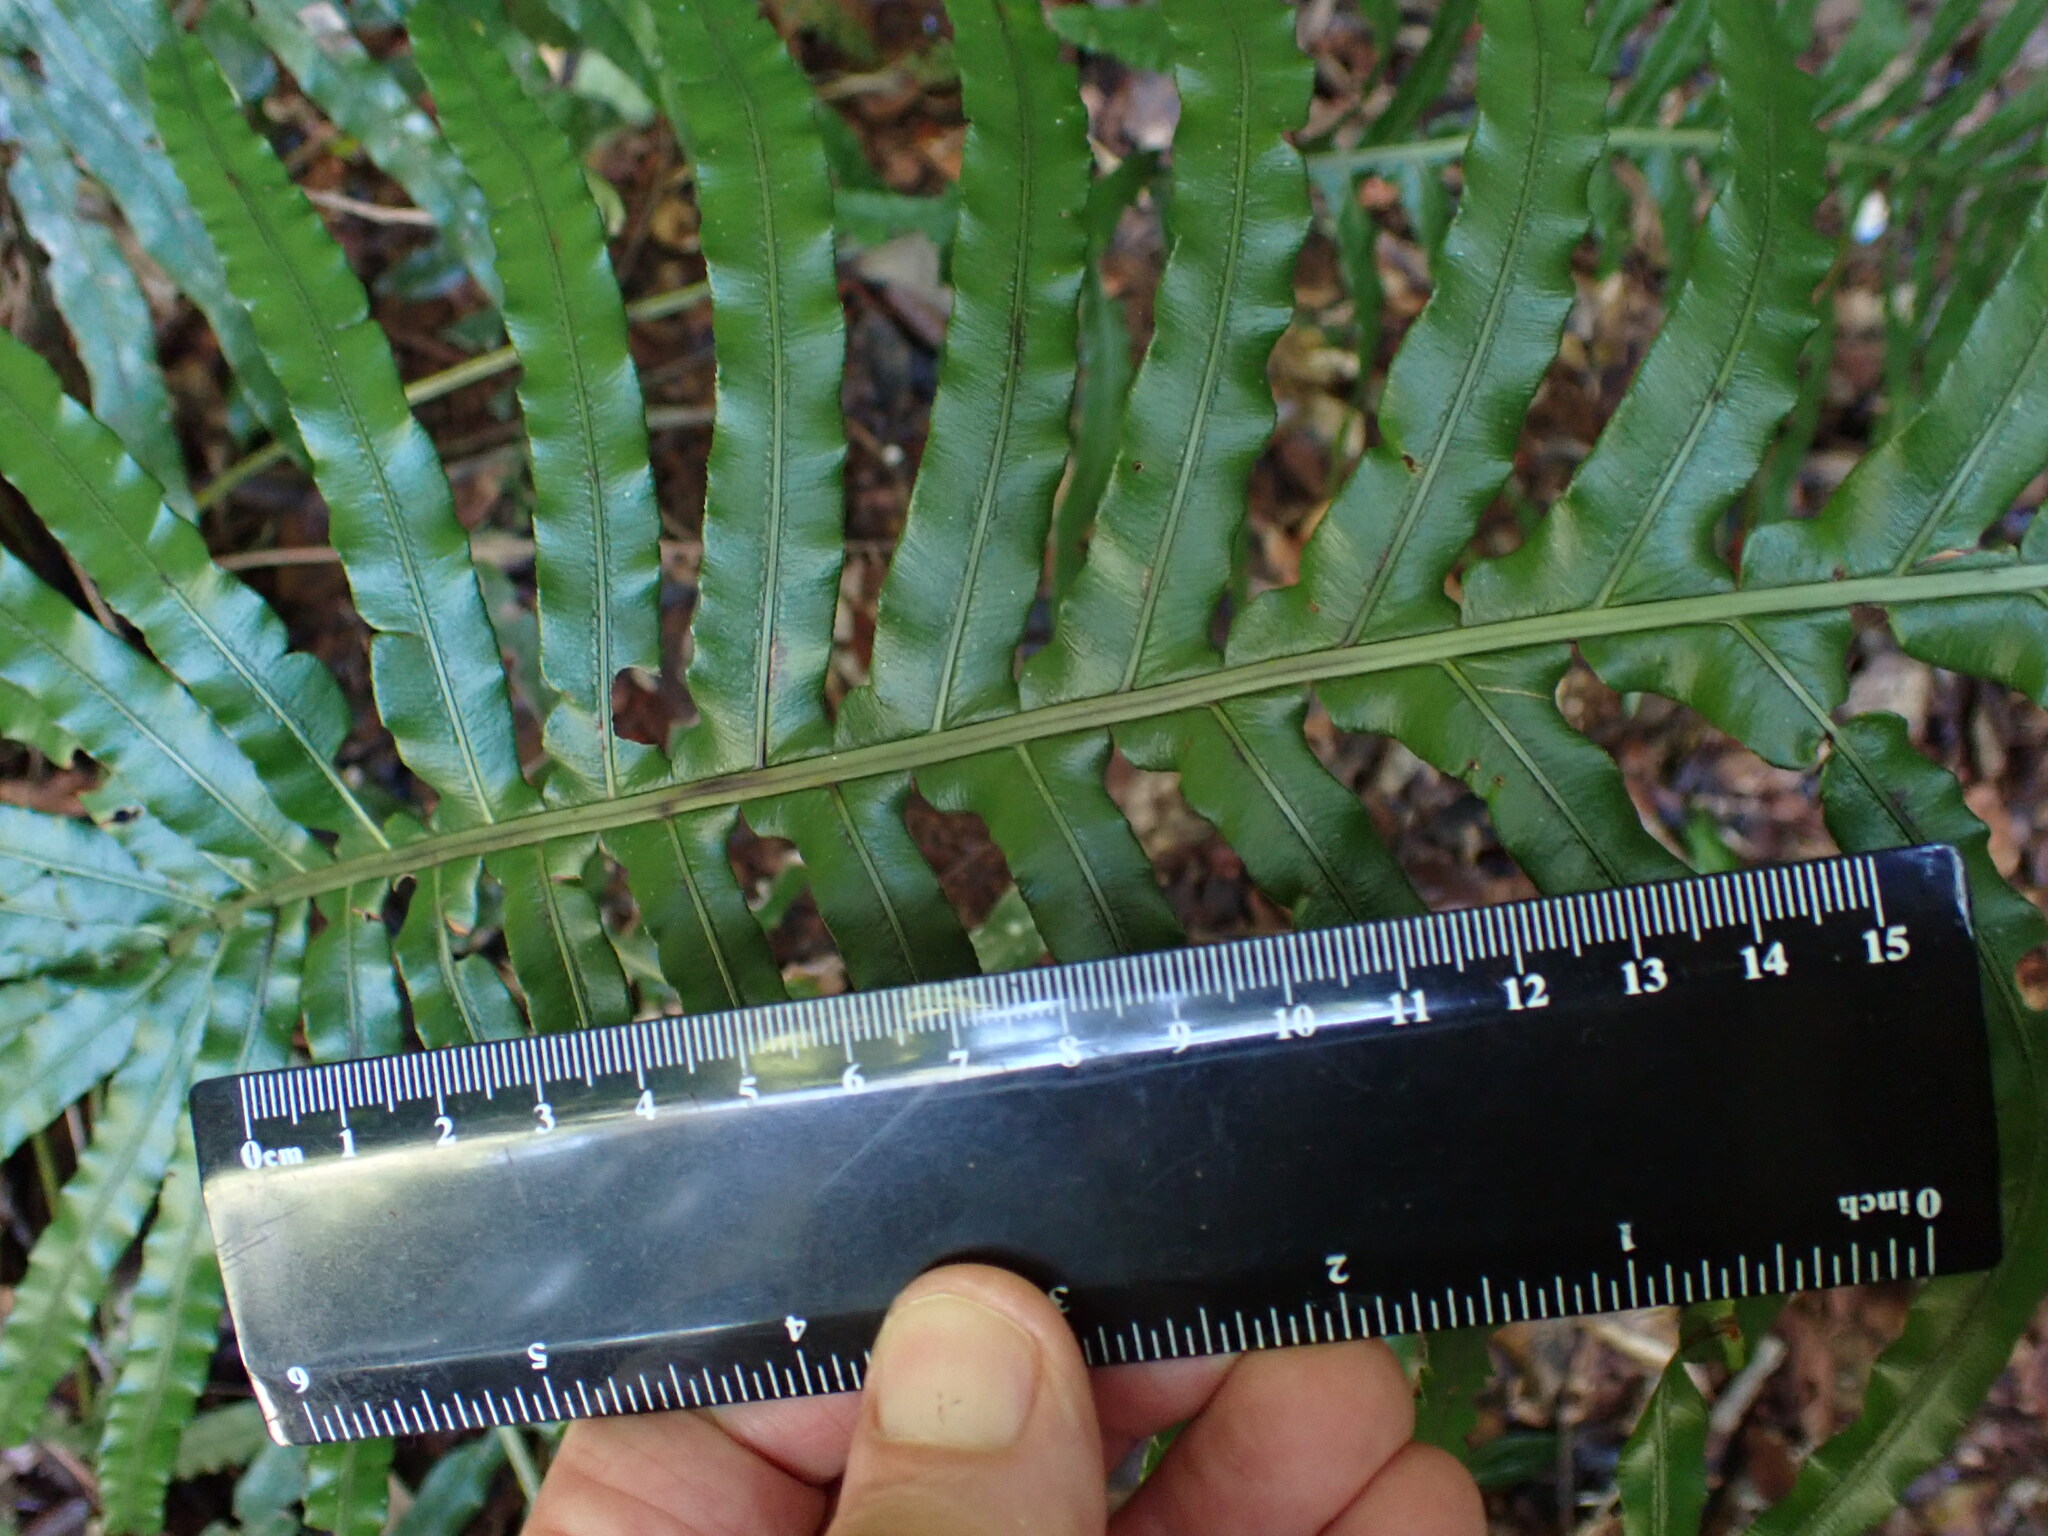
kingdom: Plantae
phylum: Tracheophyta
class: Polypodiopsida
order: Polypodiales
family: Blechnaceae
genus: Oceaniopteris
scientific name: Oceaniopteris cartilaginea
